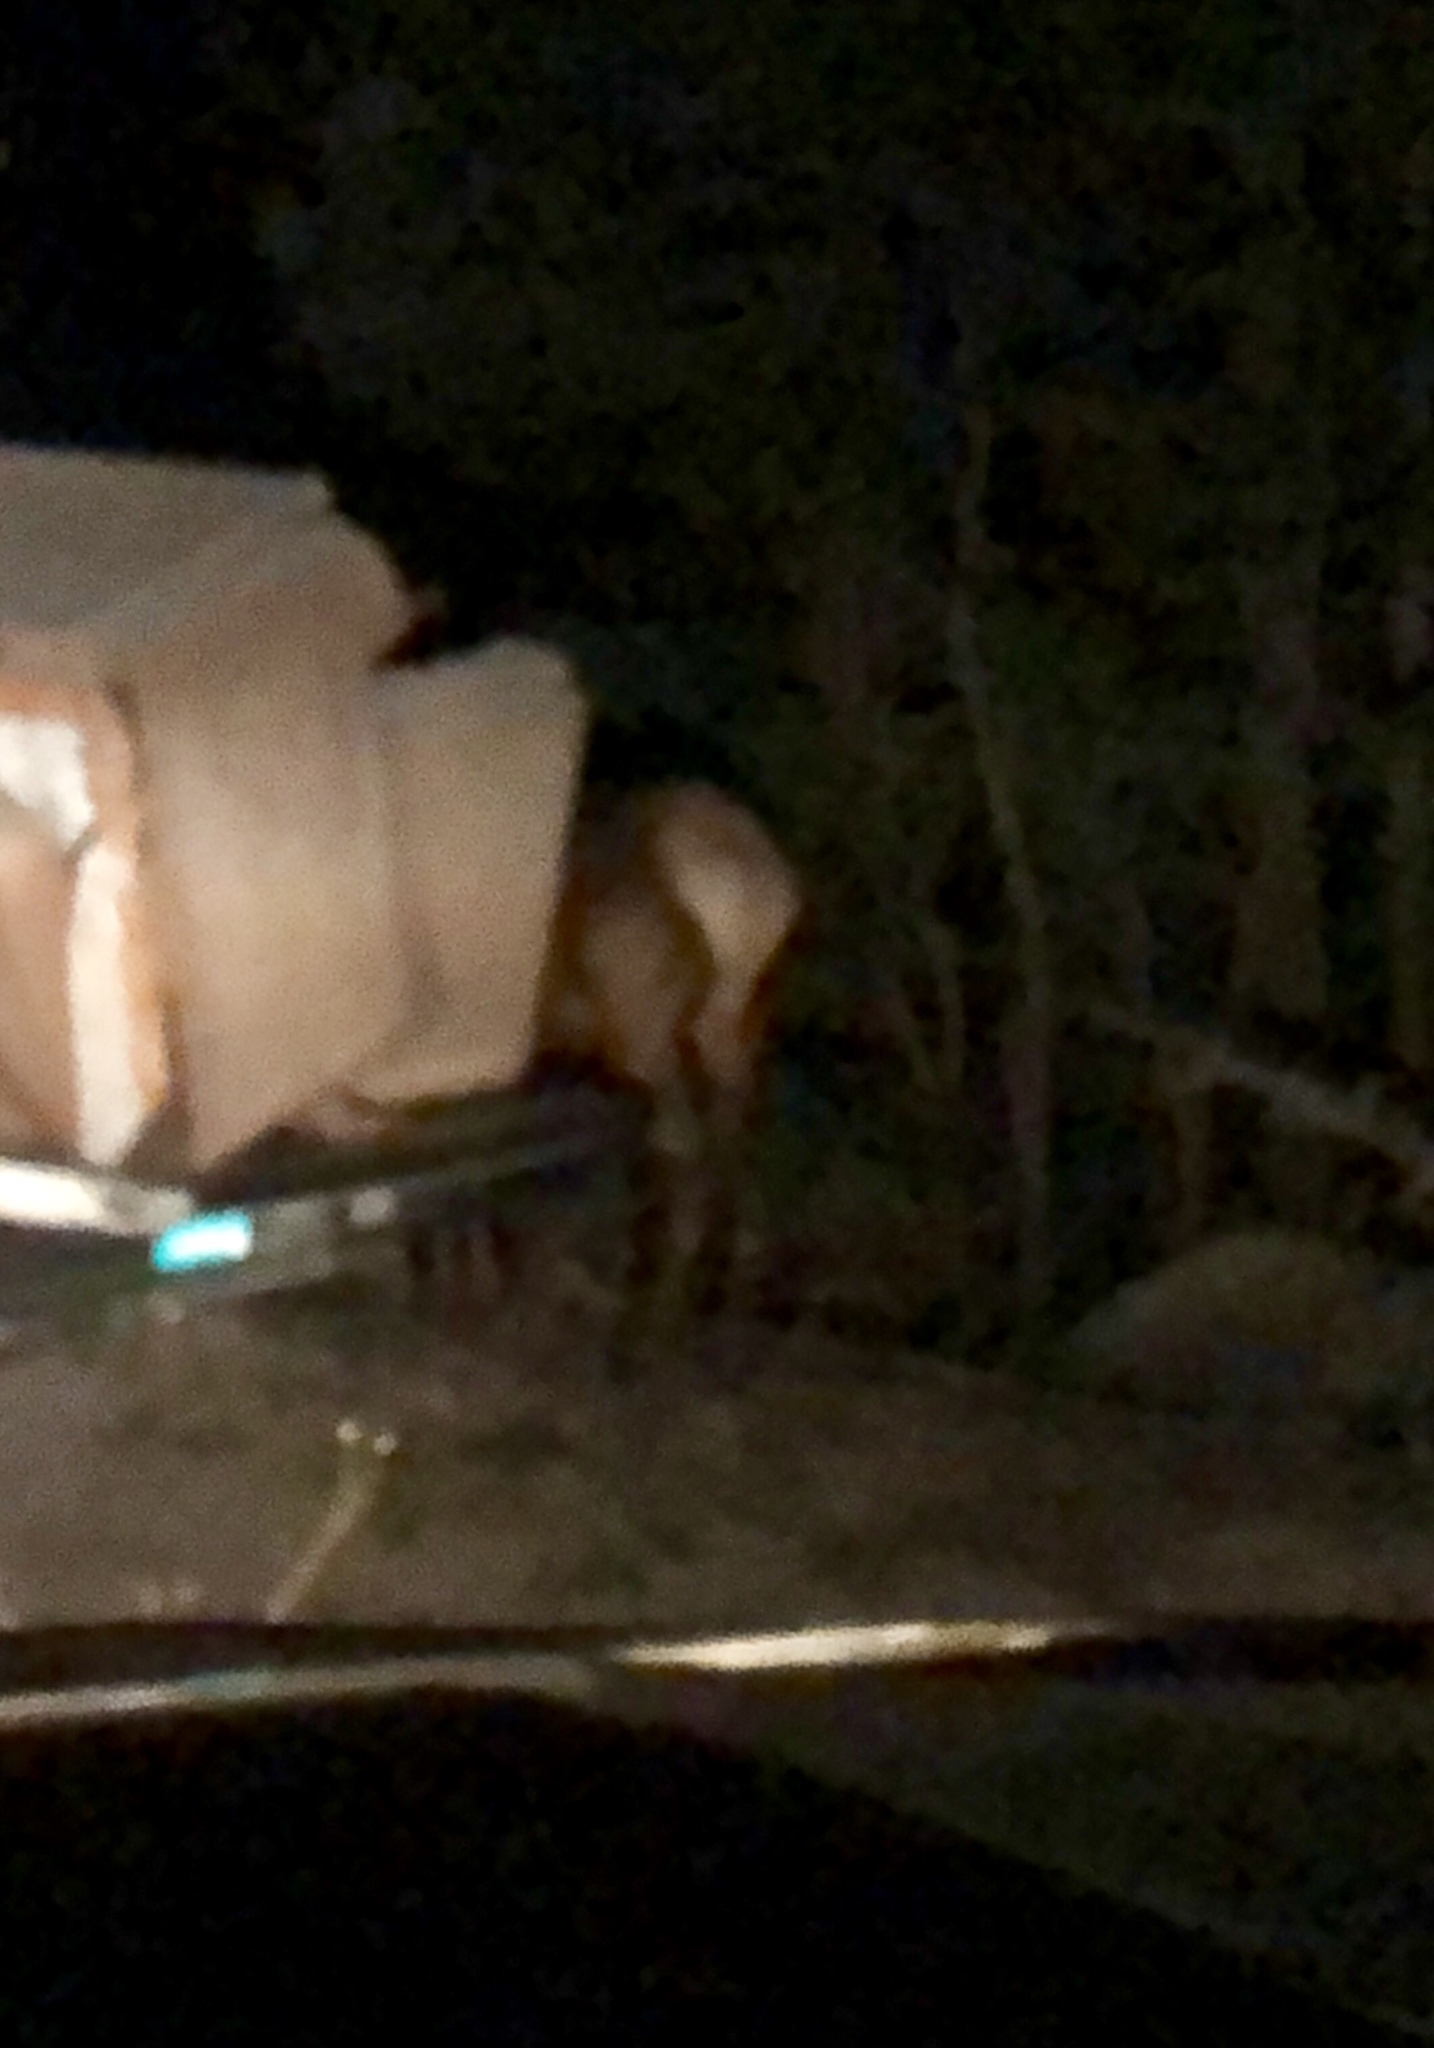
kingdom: Animalia
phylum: Chordata
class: Mammalia
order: Artiodactyla
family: Cervidae
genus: Cervus
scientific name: Cervus elaphus
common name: Red deer
